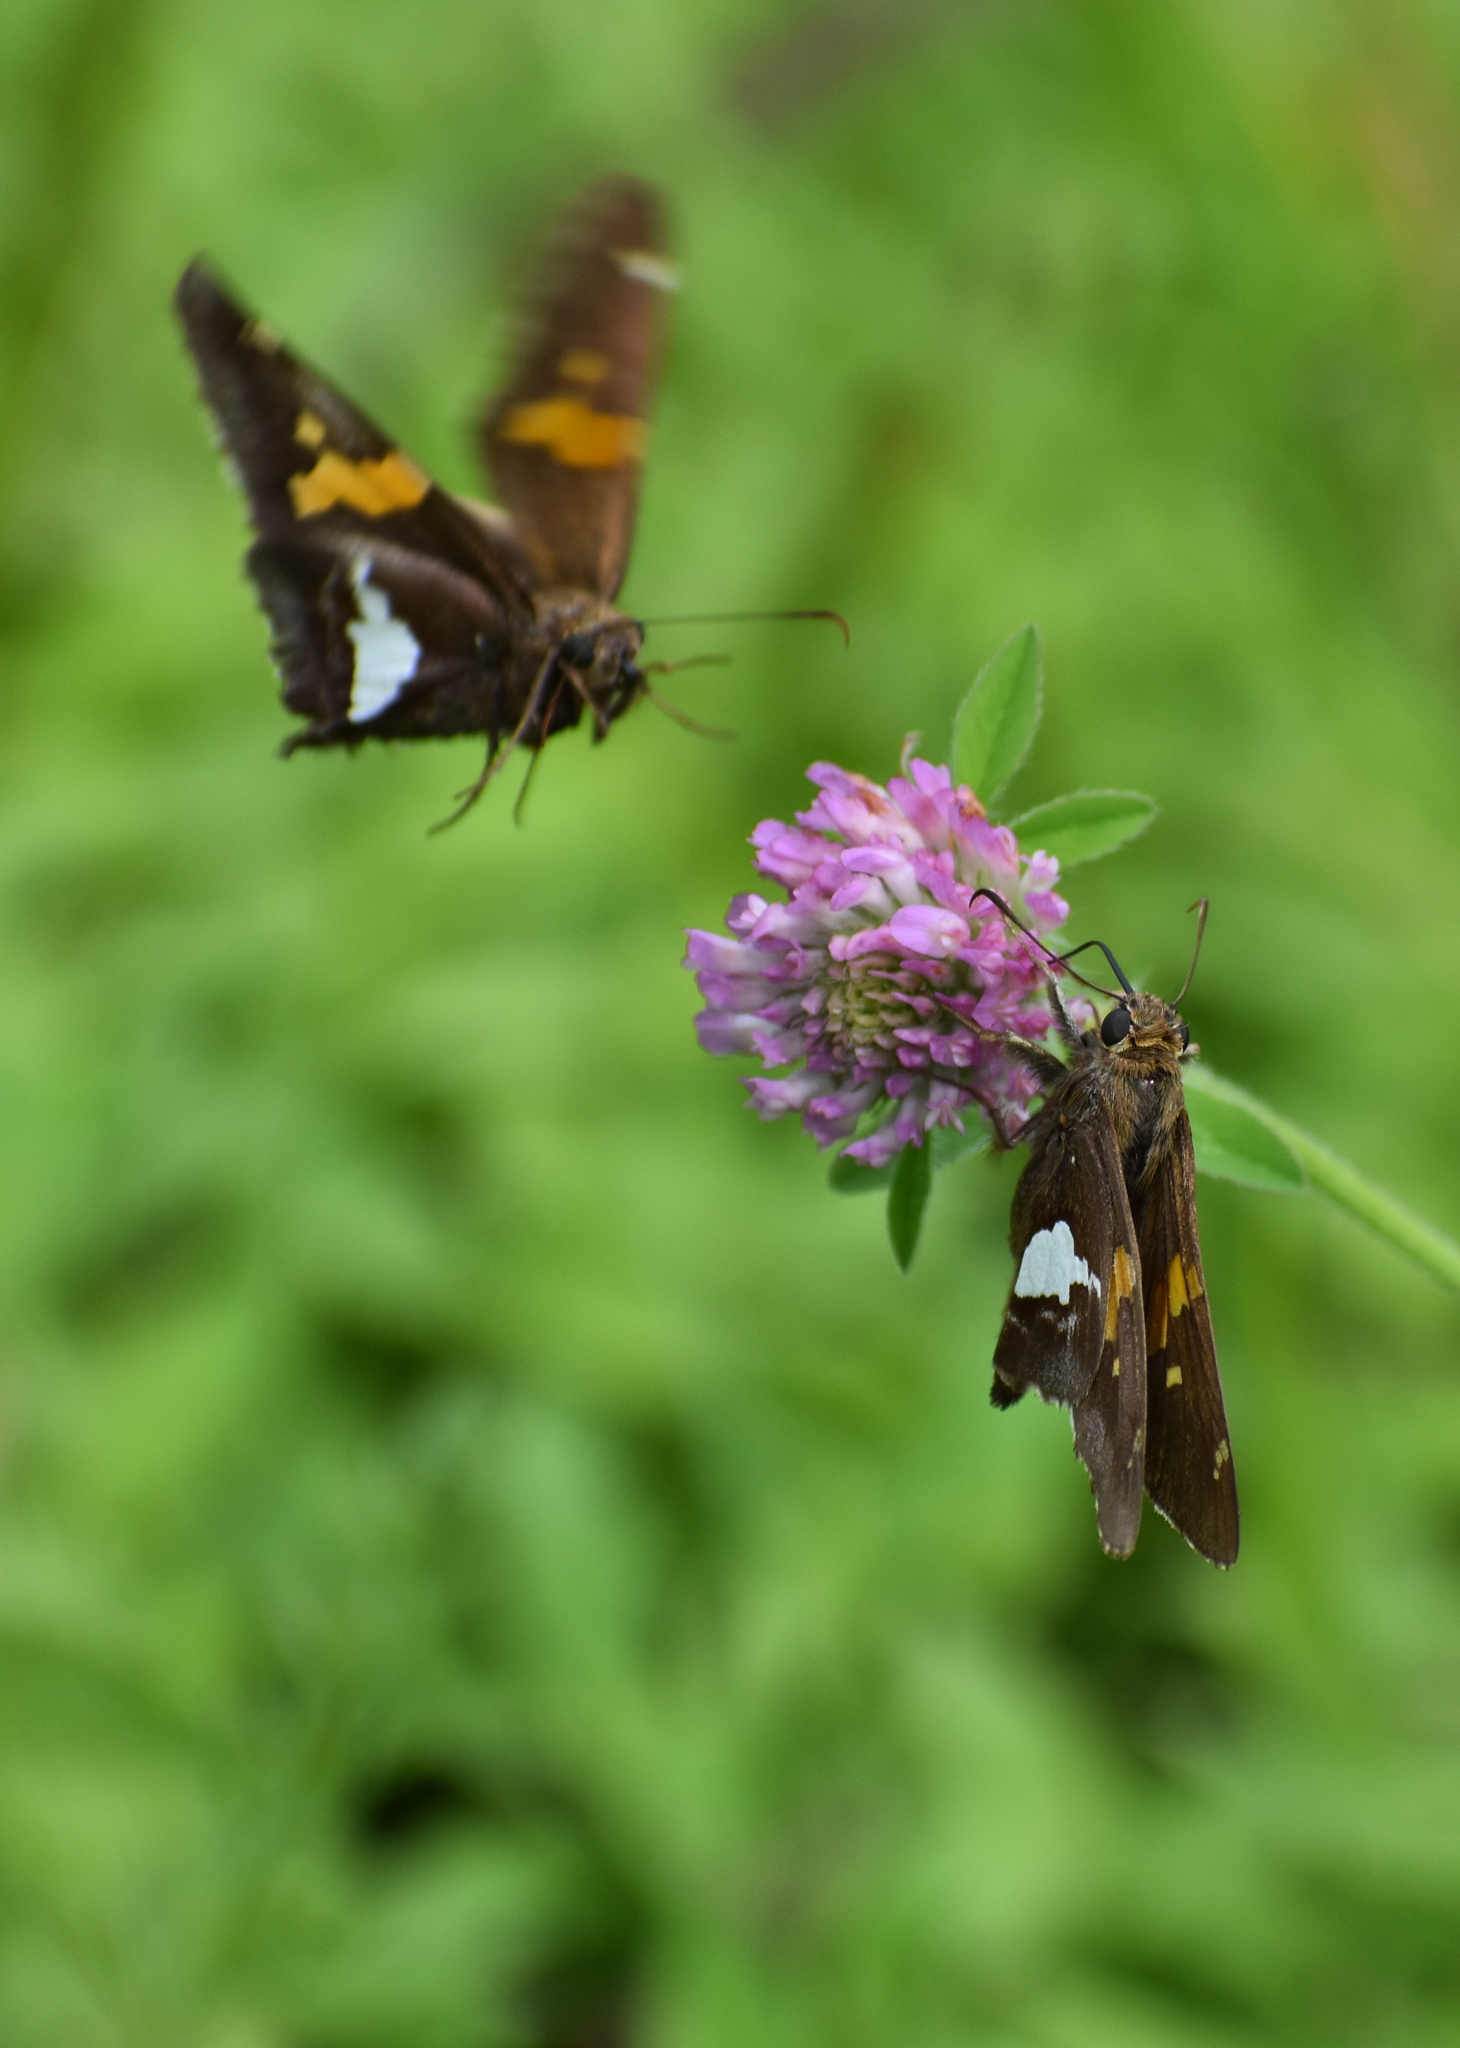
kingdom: Animalia
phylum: Arthropoda
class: Insecta
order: Lepidoptera
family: Hesperiidae
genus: Epargyreus
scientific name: Epargyreus clarus
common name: Silver-spotted skipper
